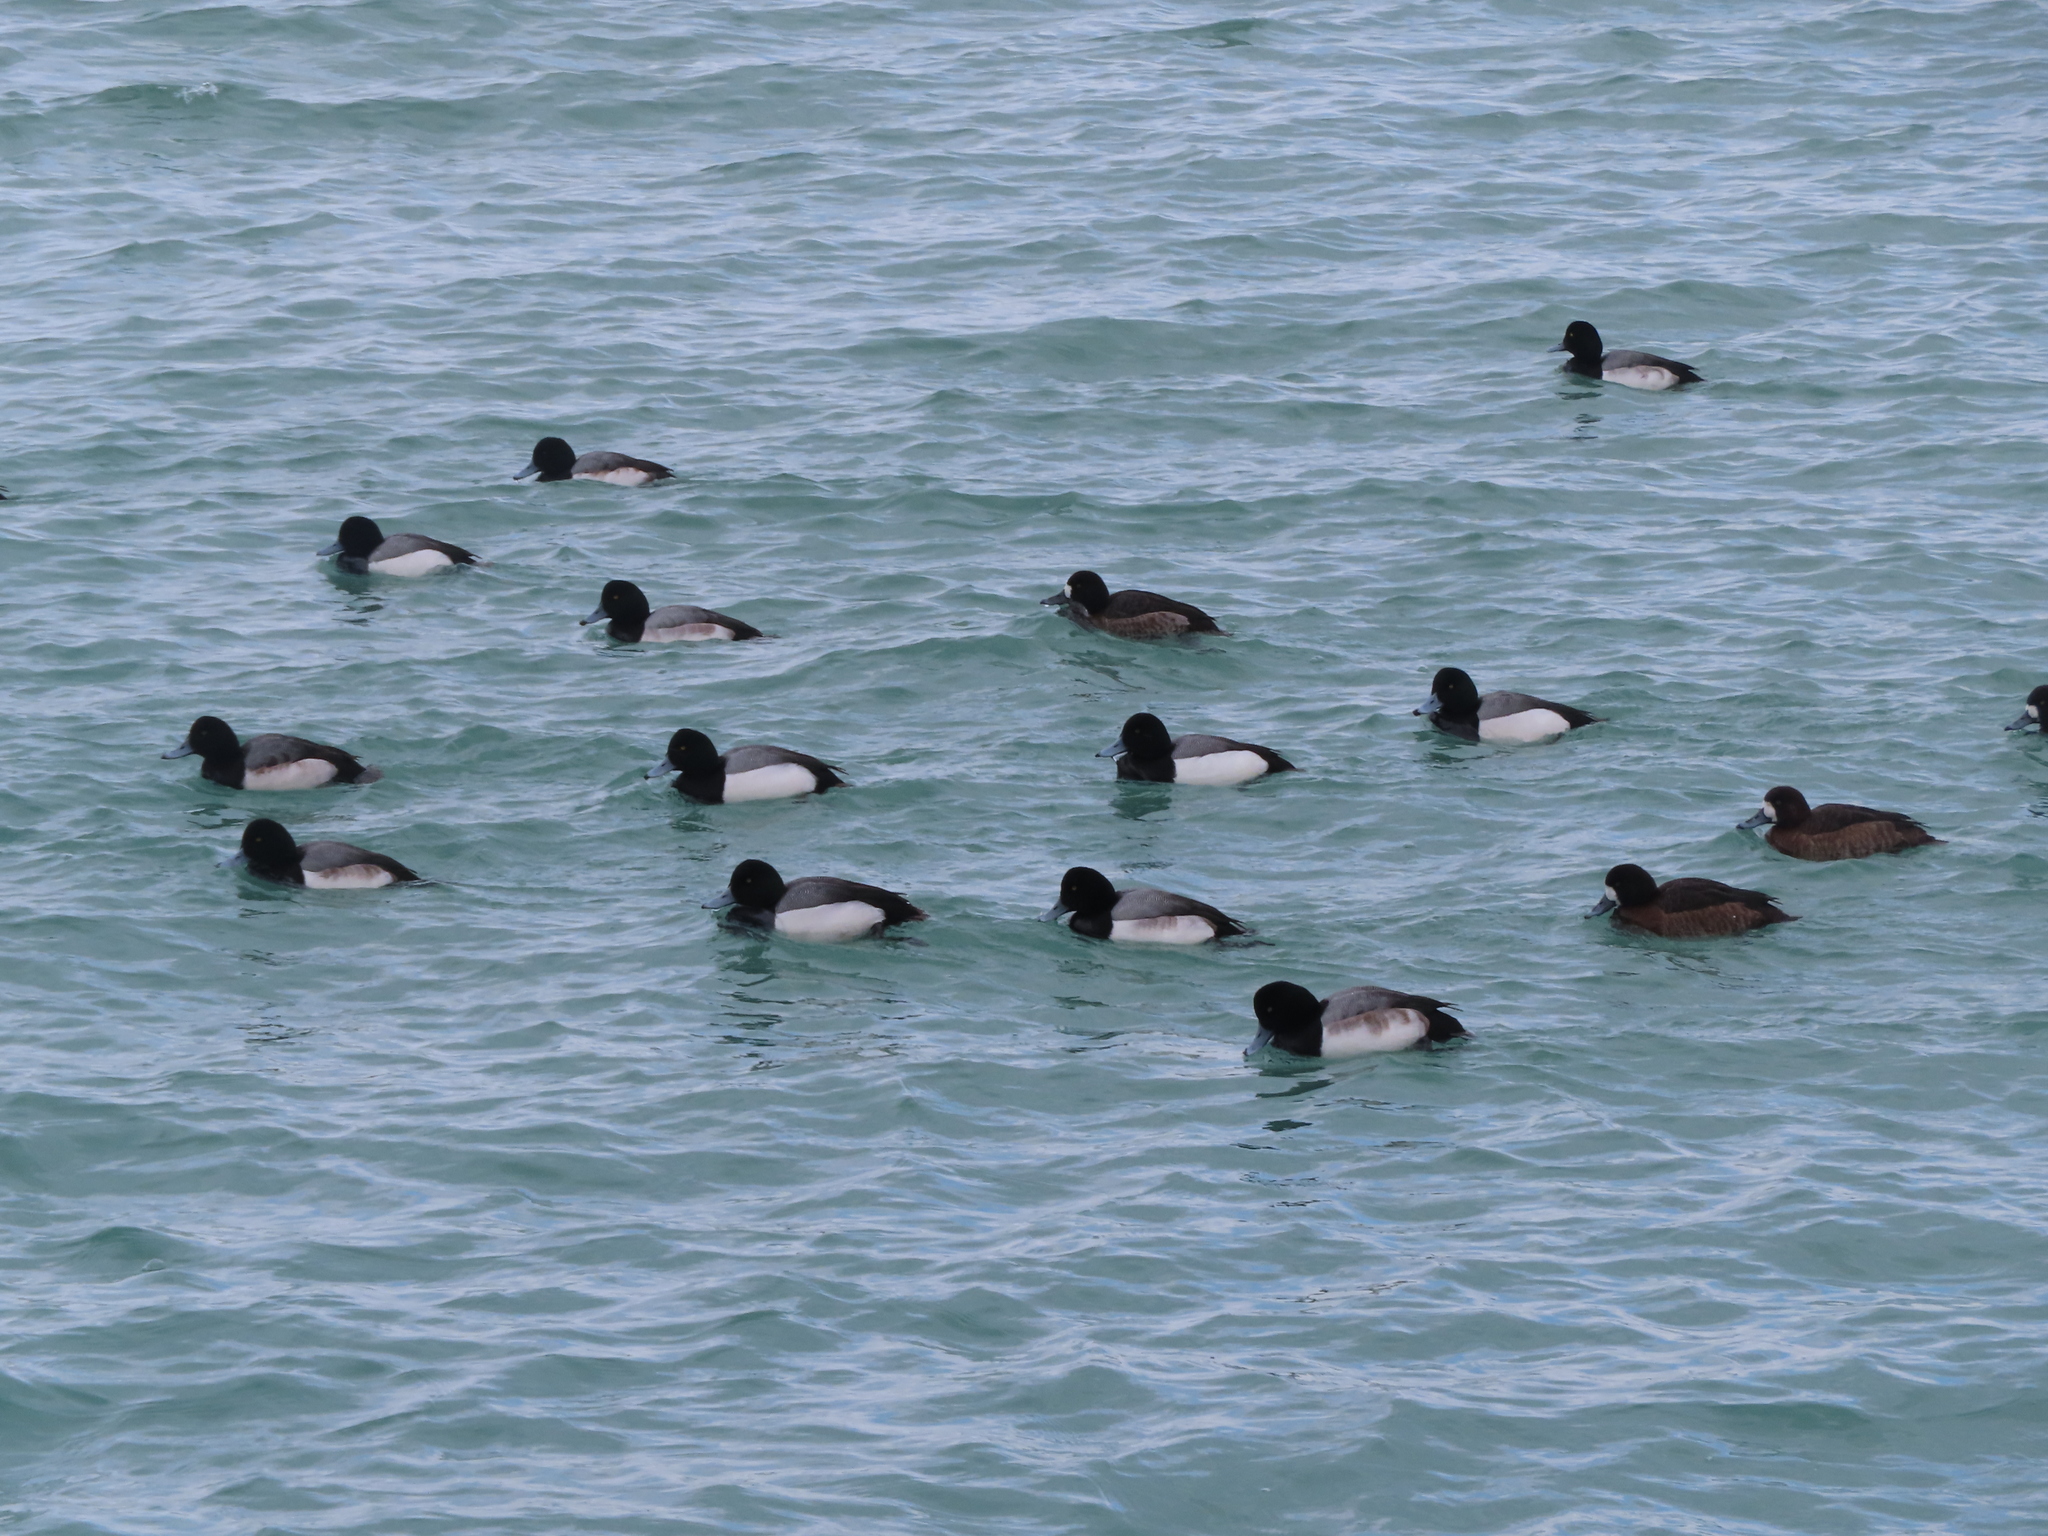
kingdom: Animalia
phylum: Chordata
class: Aves
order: Anseriformes
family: Anatidae
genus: Aythya
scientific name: Aythya marila
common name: Greater scaup
